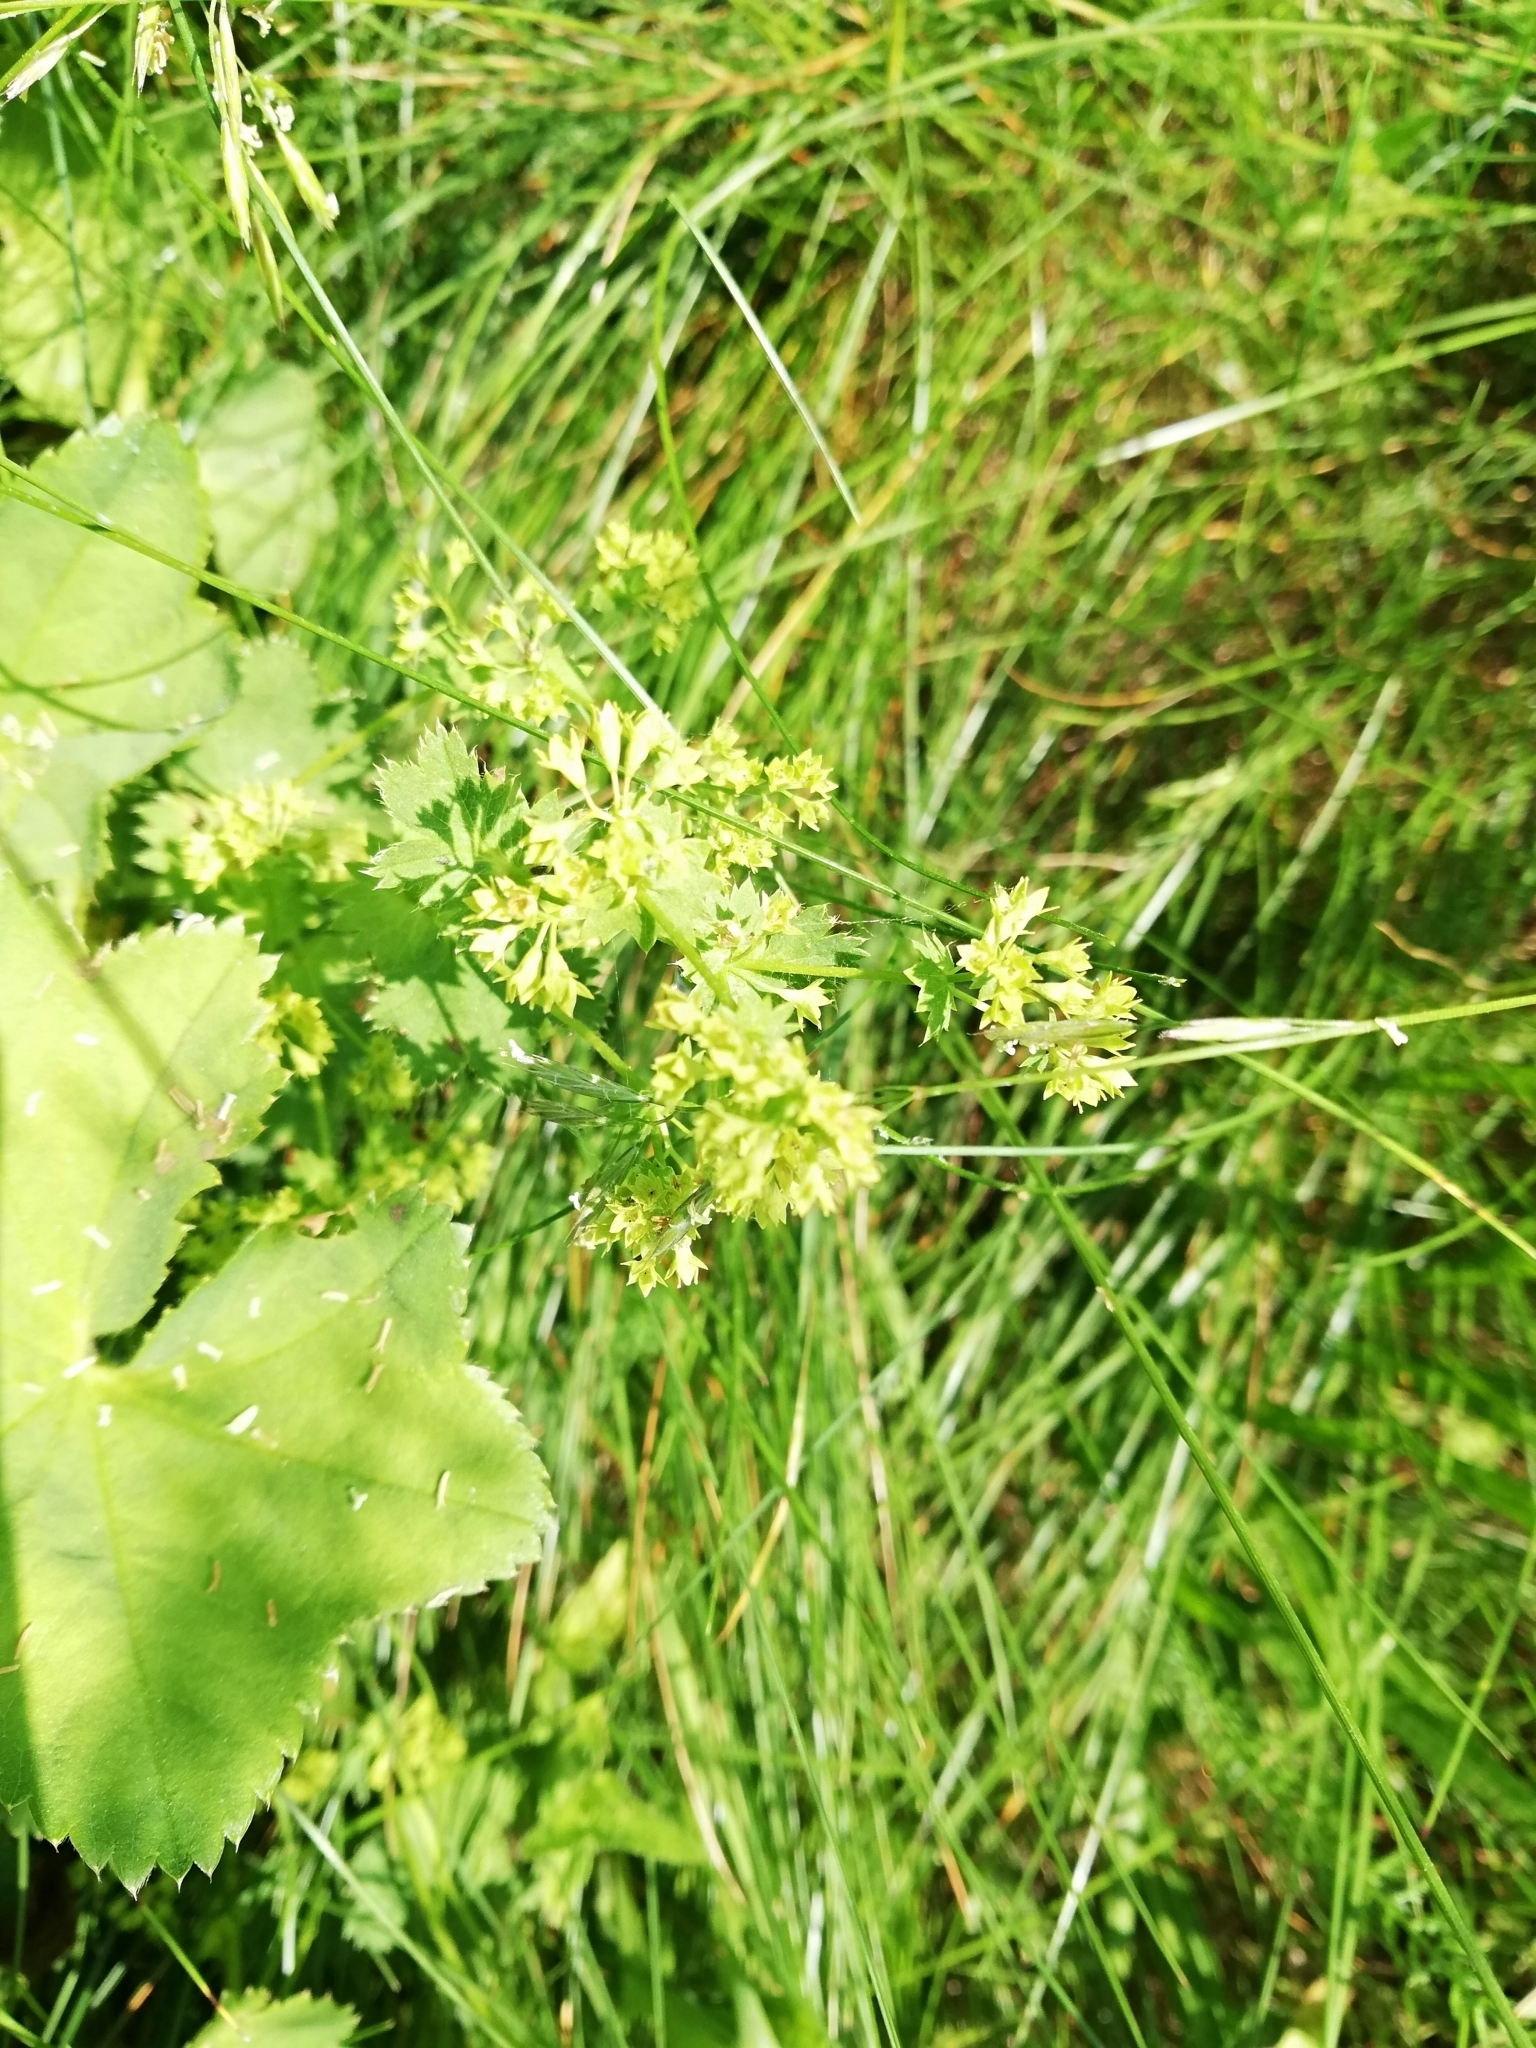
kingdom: Plantae
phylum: Tracheophyta
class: Magnoliopsida
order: Rosales
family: Rosaceae
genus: Alchemilla
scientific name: Alchemilla lindbergiana
